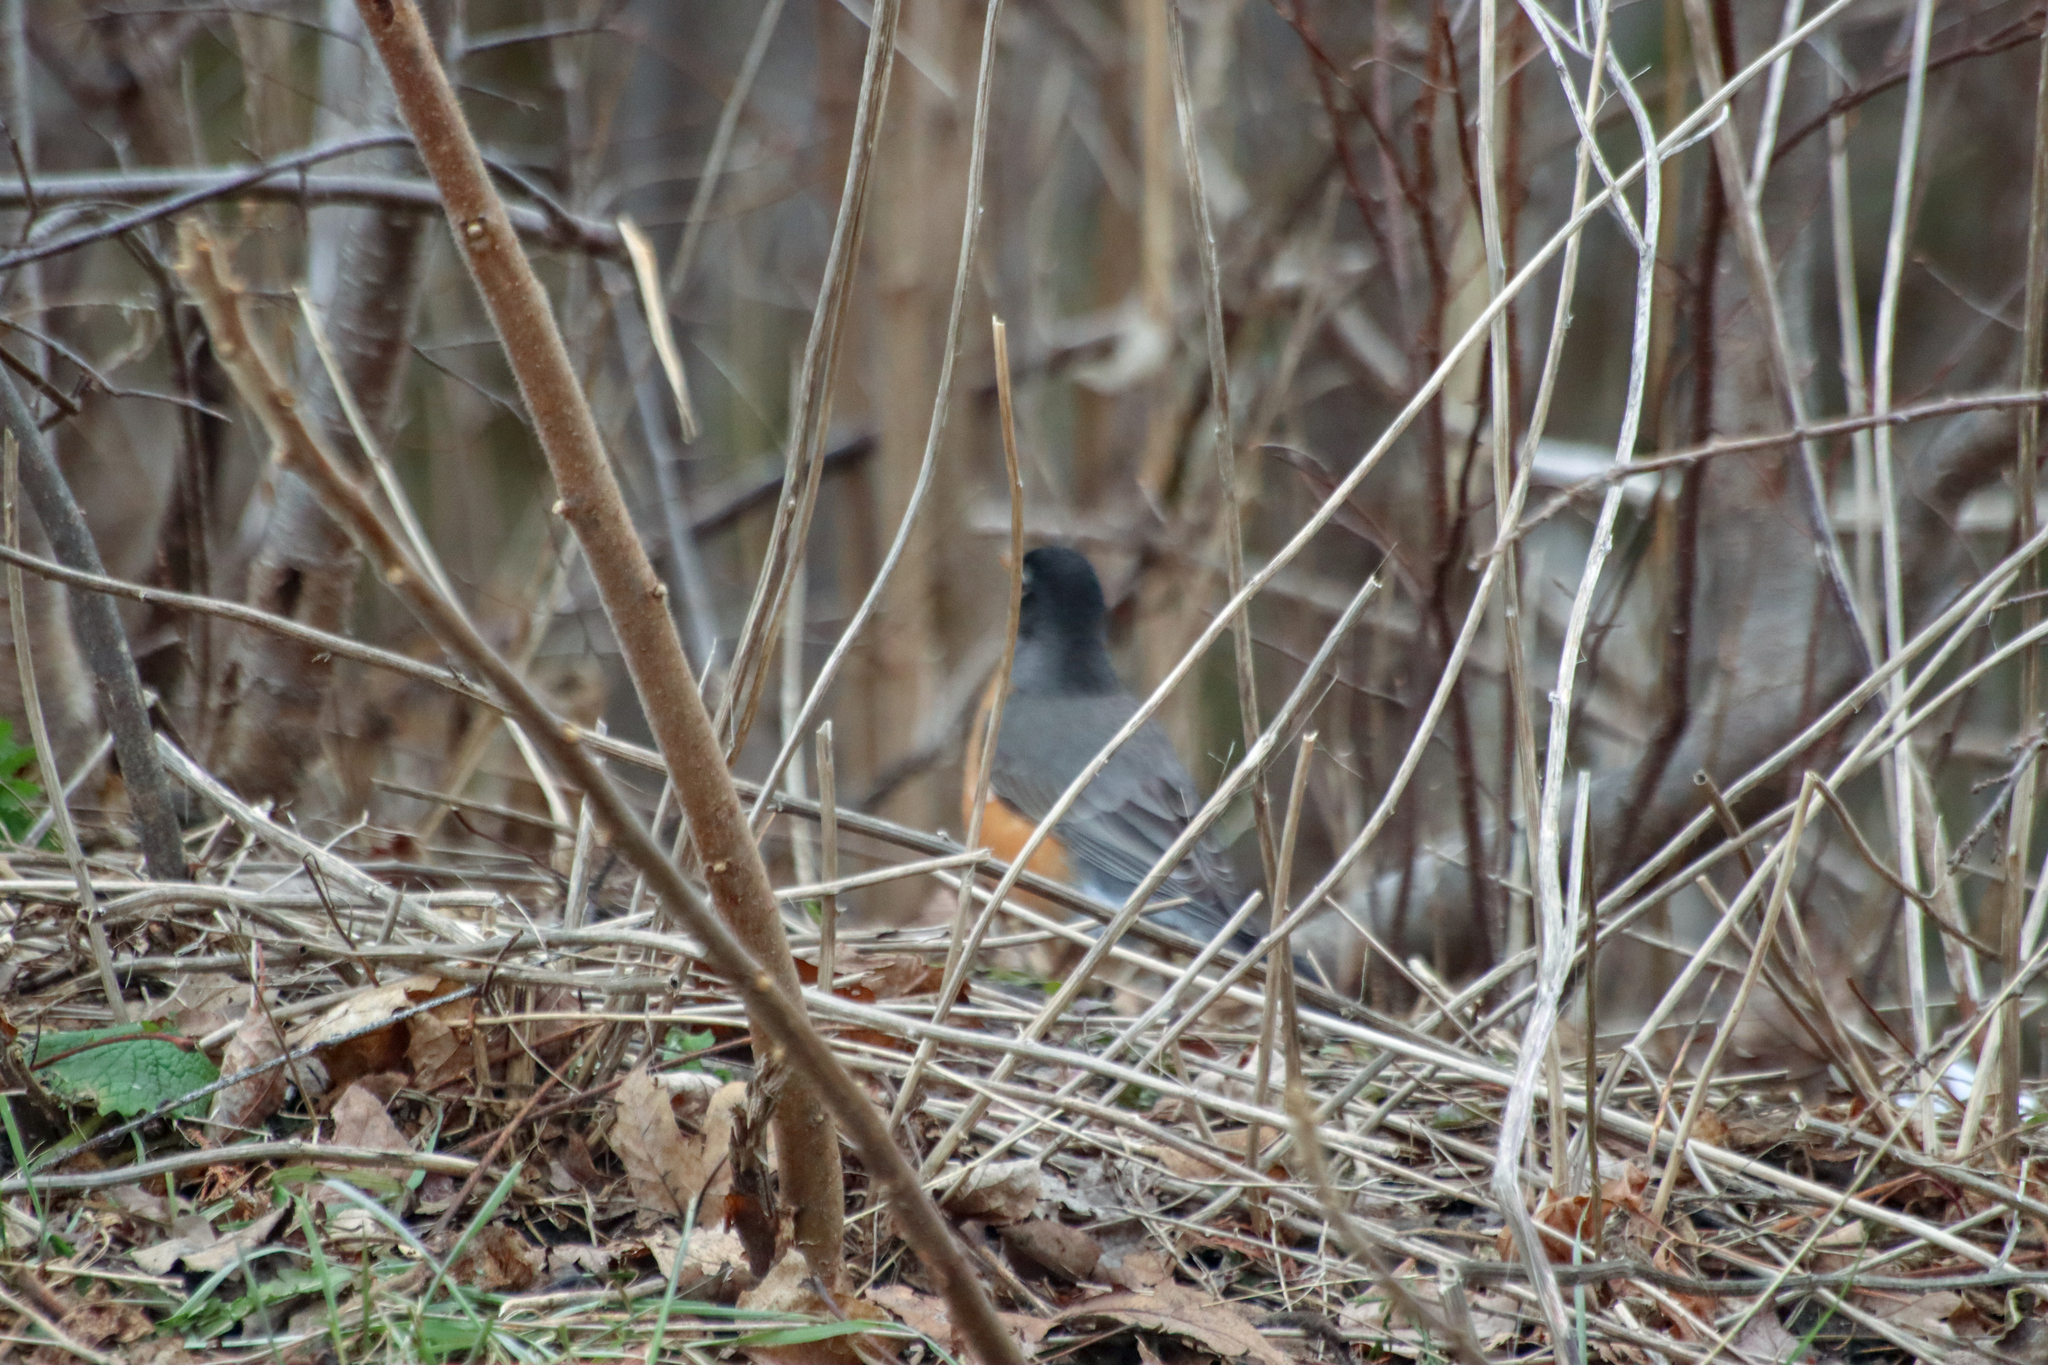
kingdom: Animalia
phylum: Chordata
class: Aves
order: Passeriformes
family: Turdidae
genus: Turdus
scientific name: Turdus migratorius
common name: American robin
